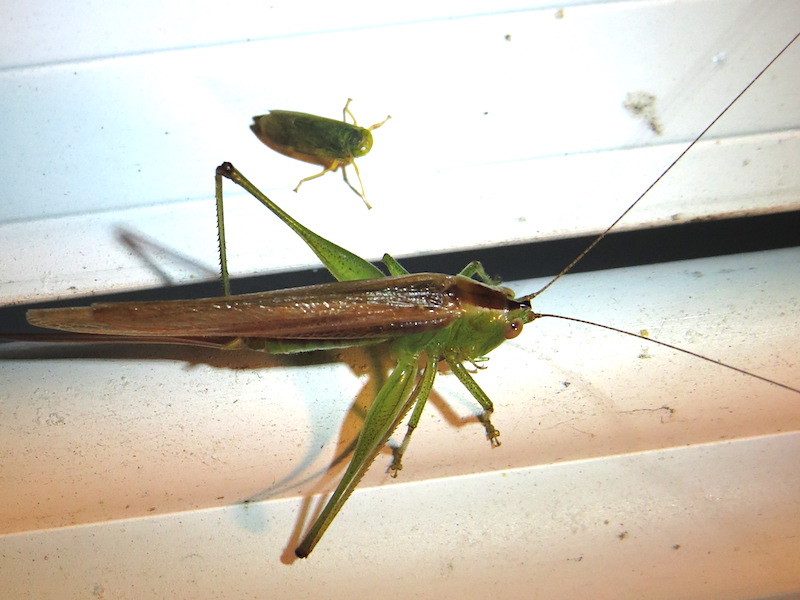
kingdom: Animalia
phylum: Arthropoda
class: Insecta
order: Orthoptera
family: Tettigoniidae
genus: Conocephalus
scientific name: Conocephalus brevipennis
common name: Short-winged meadow katydid
